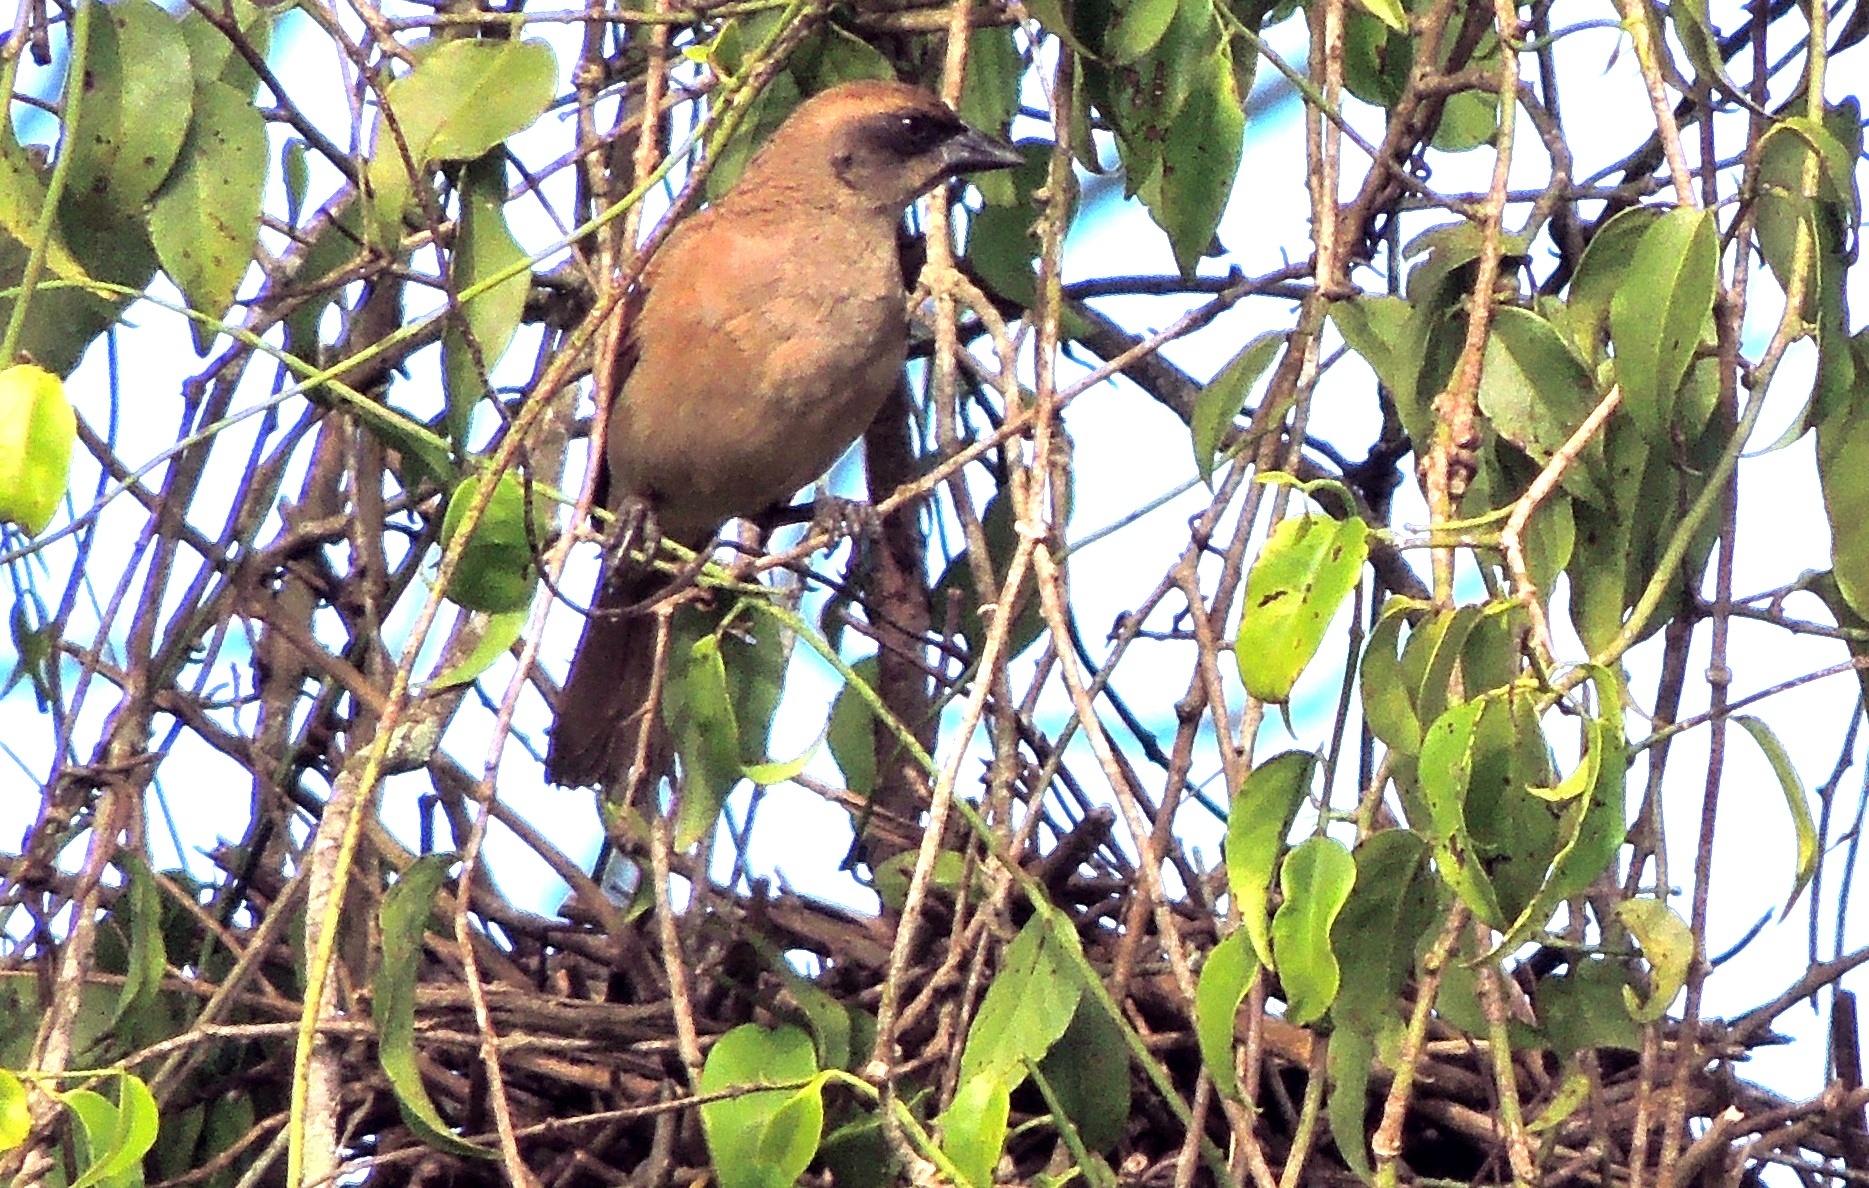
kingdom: Animalia
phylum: Chordata
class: Aves
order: Passeriformes
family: Icteridae
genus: Agelaioides
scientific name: Agelaioides badius
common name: Baywing
